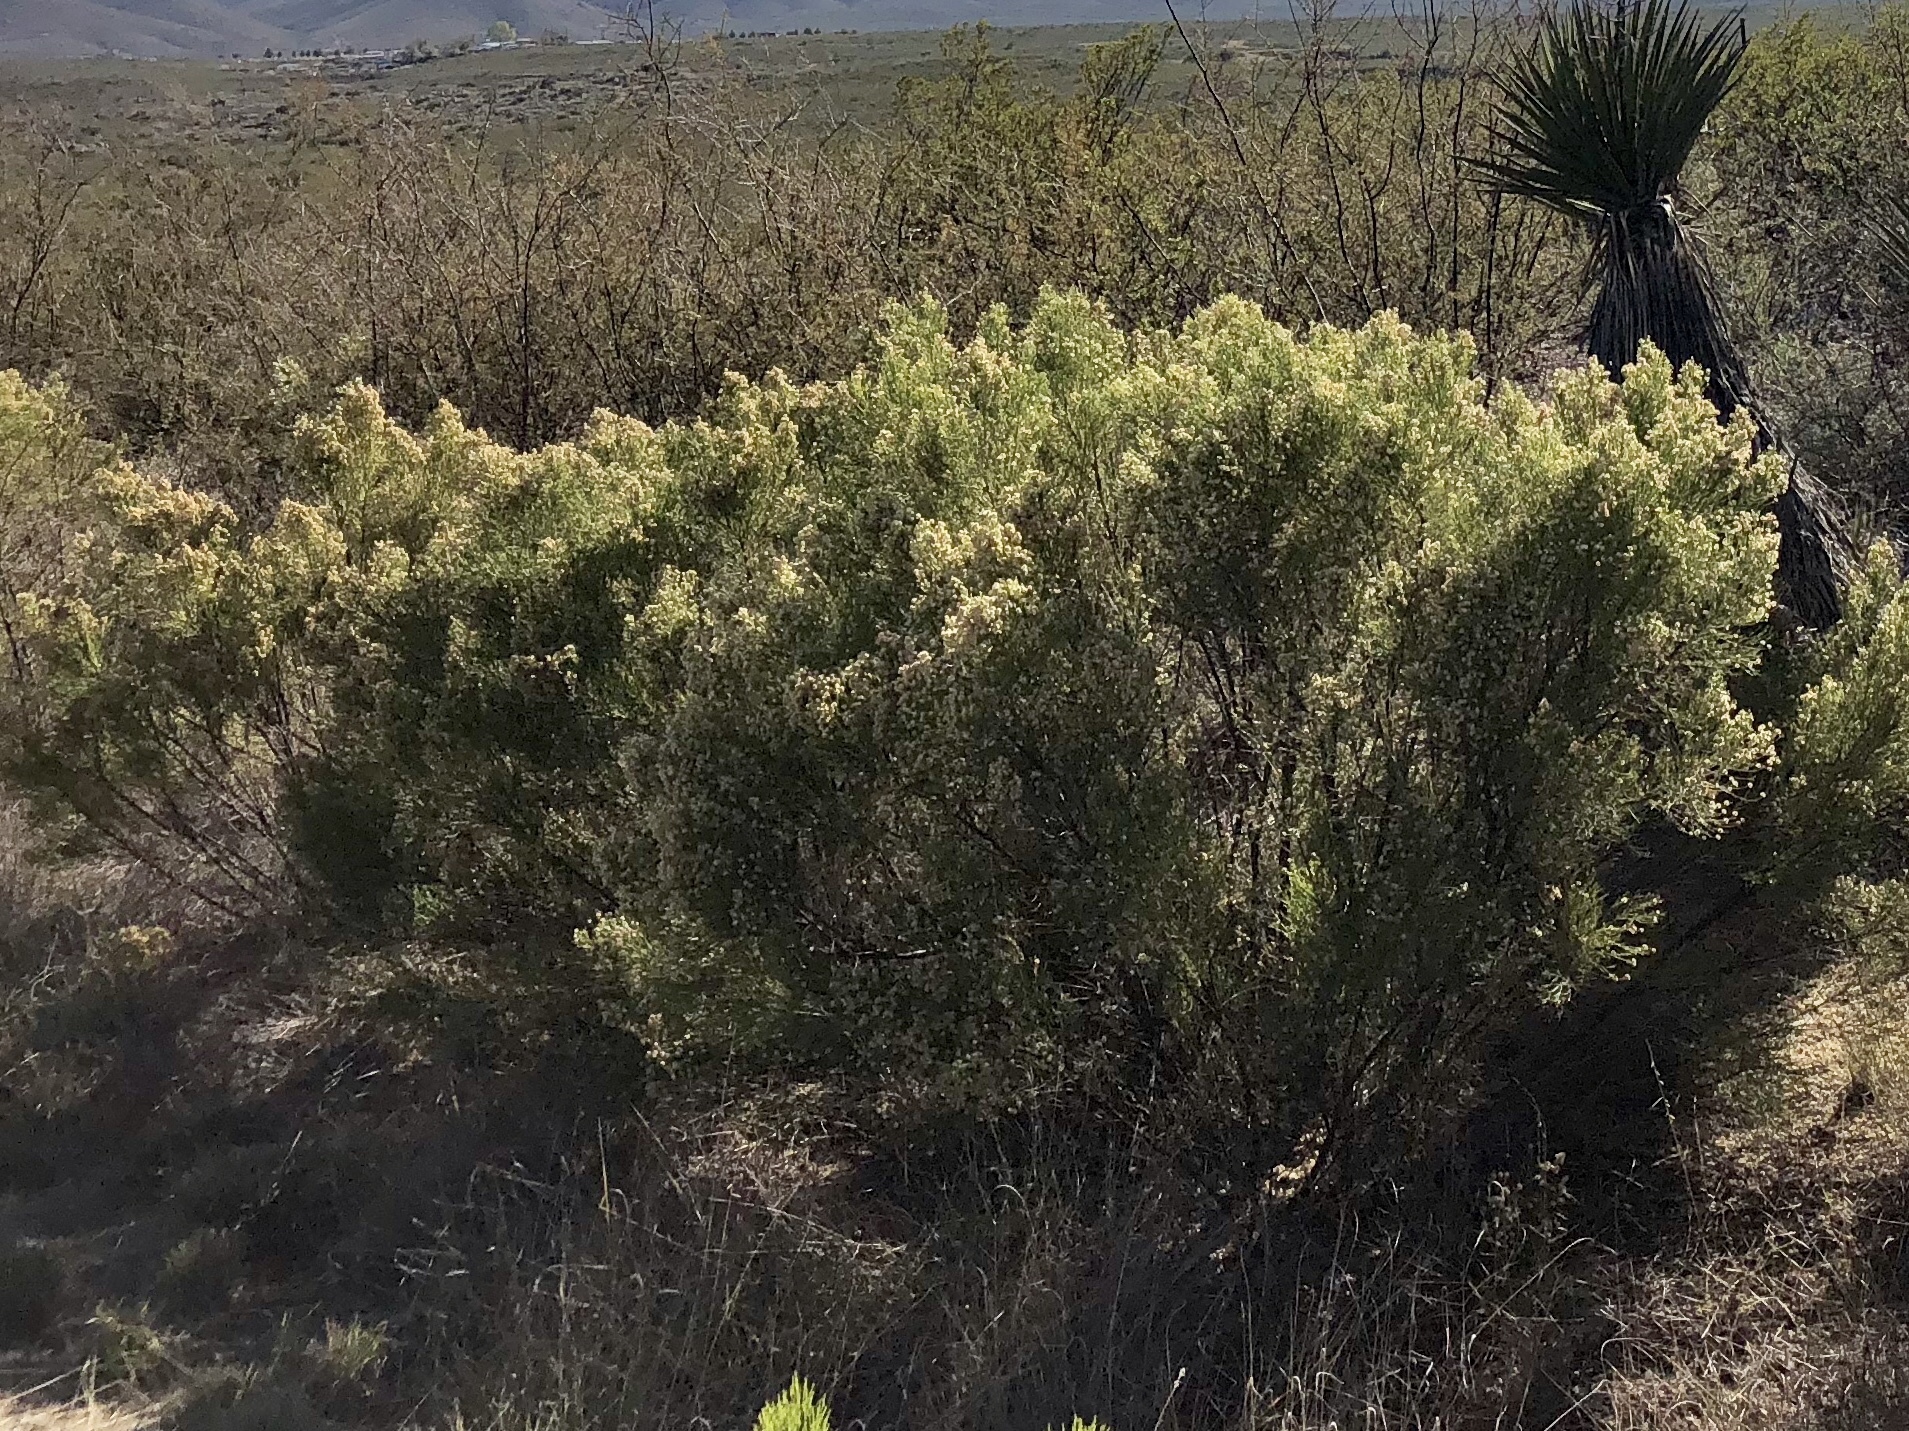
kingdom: Plantae
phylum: Tracheophyta
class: Magnoliopsida
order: Asterales
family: Asteraceae
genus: Baccharis
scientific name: Baccharis sarothroides
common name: Desert-broom
